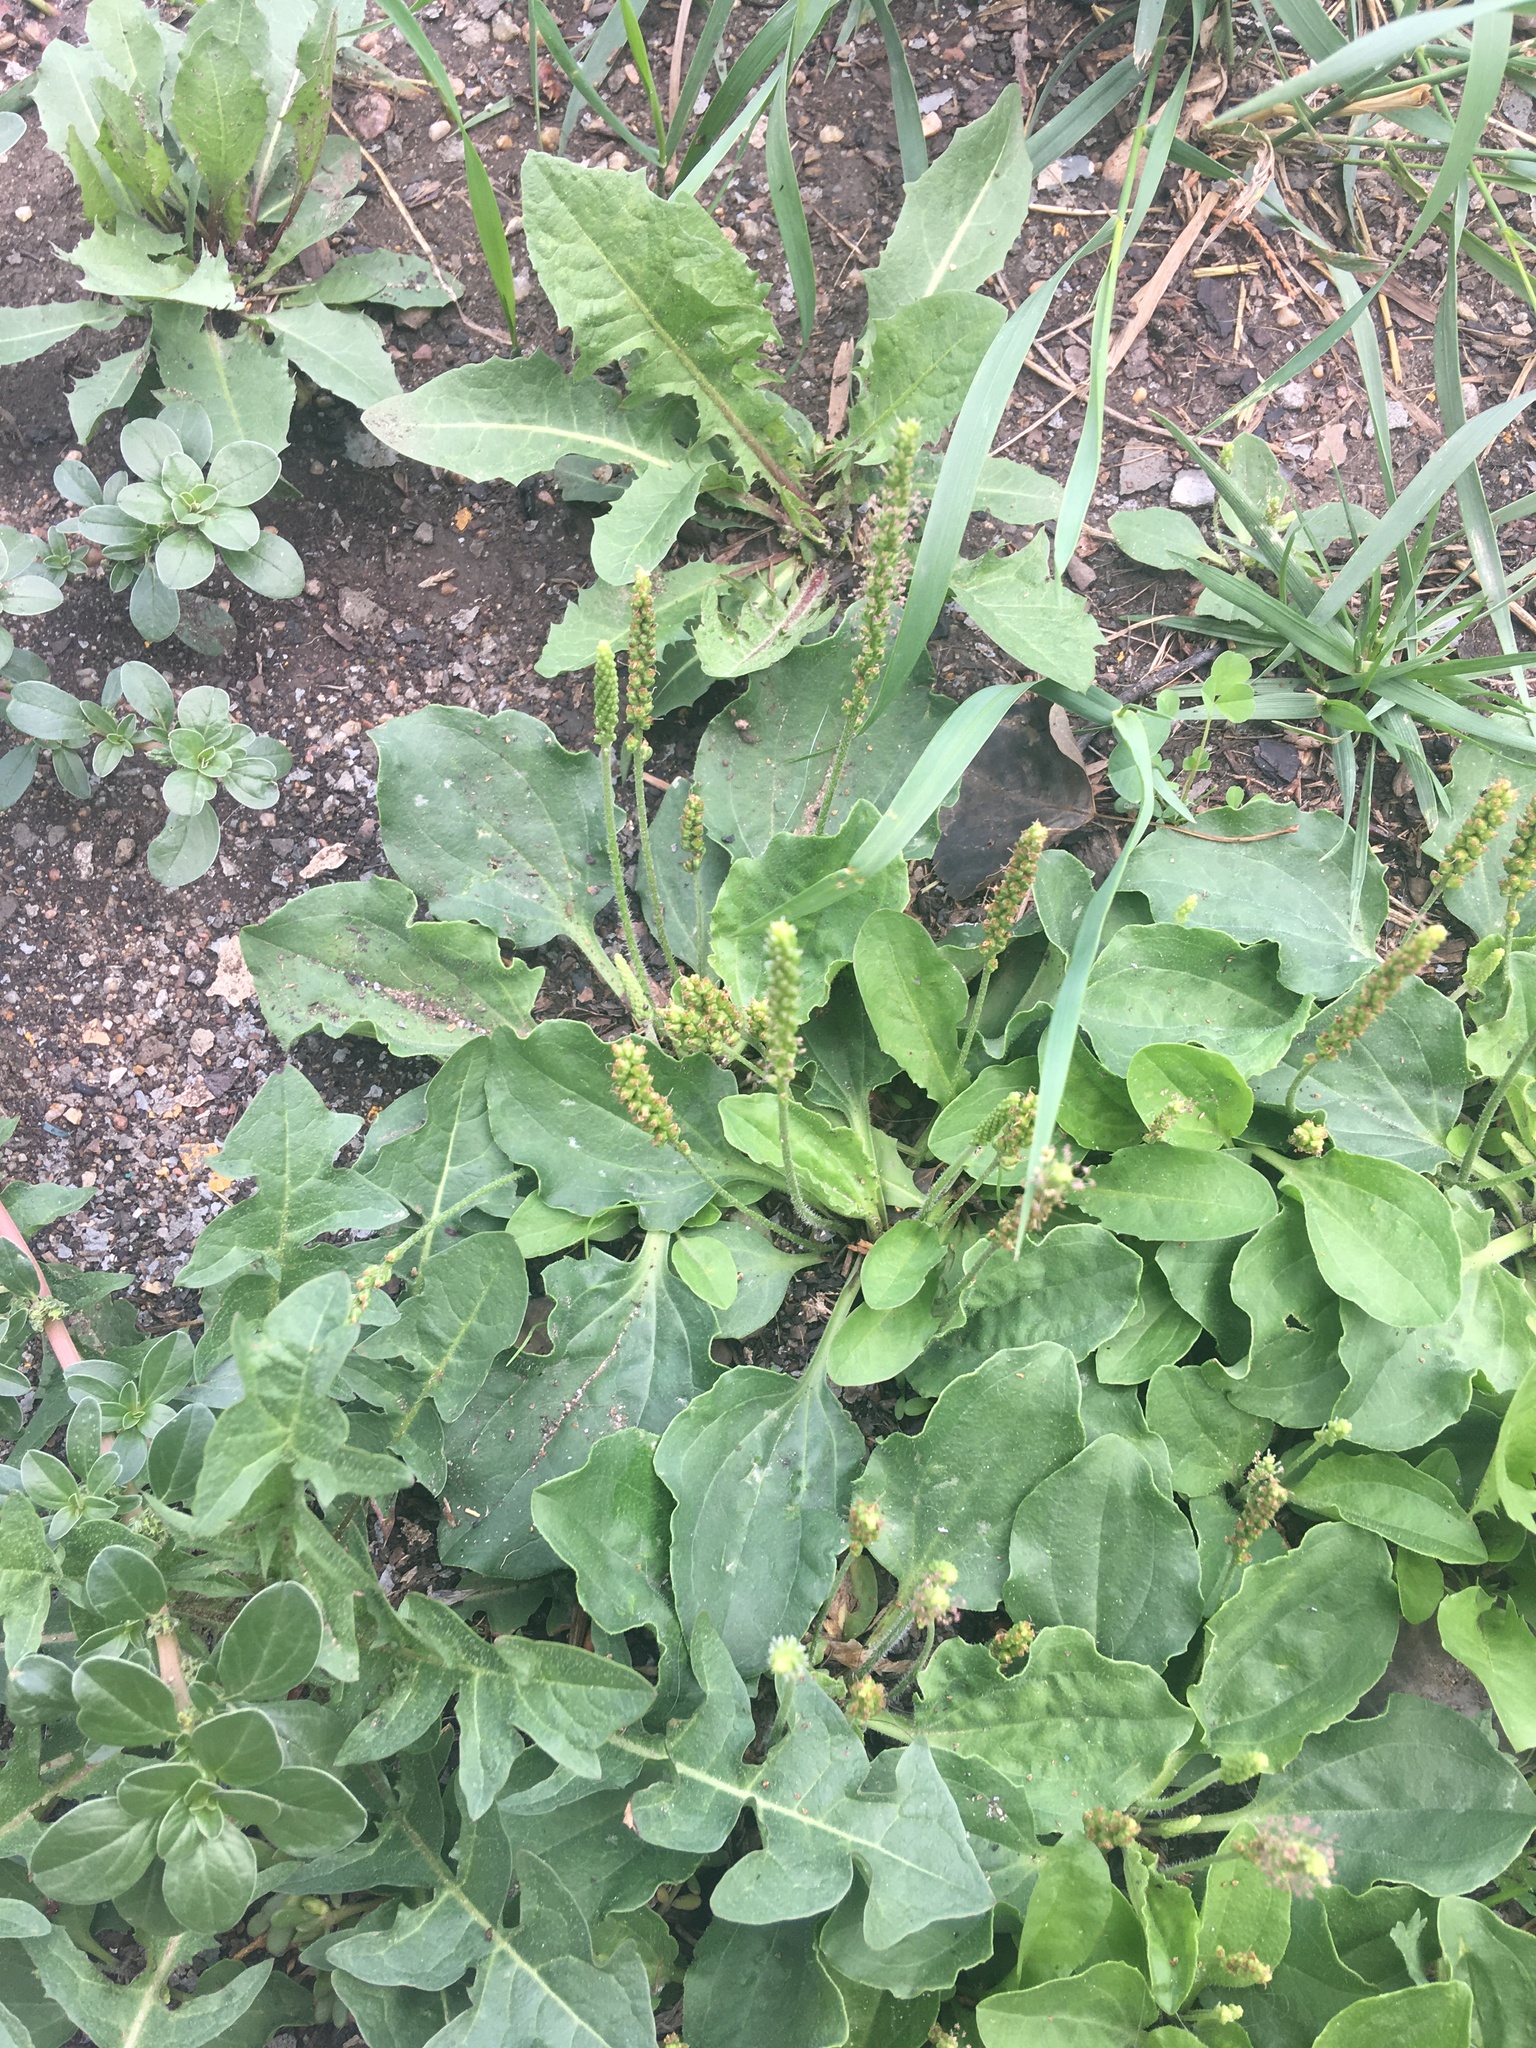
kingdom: Plantae
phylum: Tracheophyta
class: Magnoliopsida
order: Lamiales
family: Plantaginaceae
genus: Plantago
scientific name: Plantago major
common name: Common plantain
